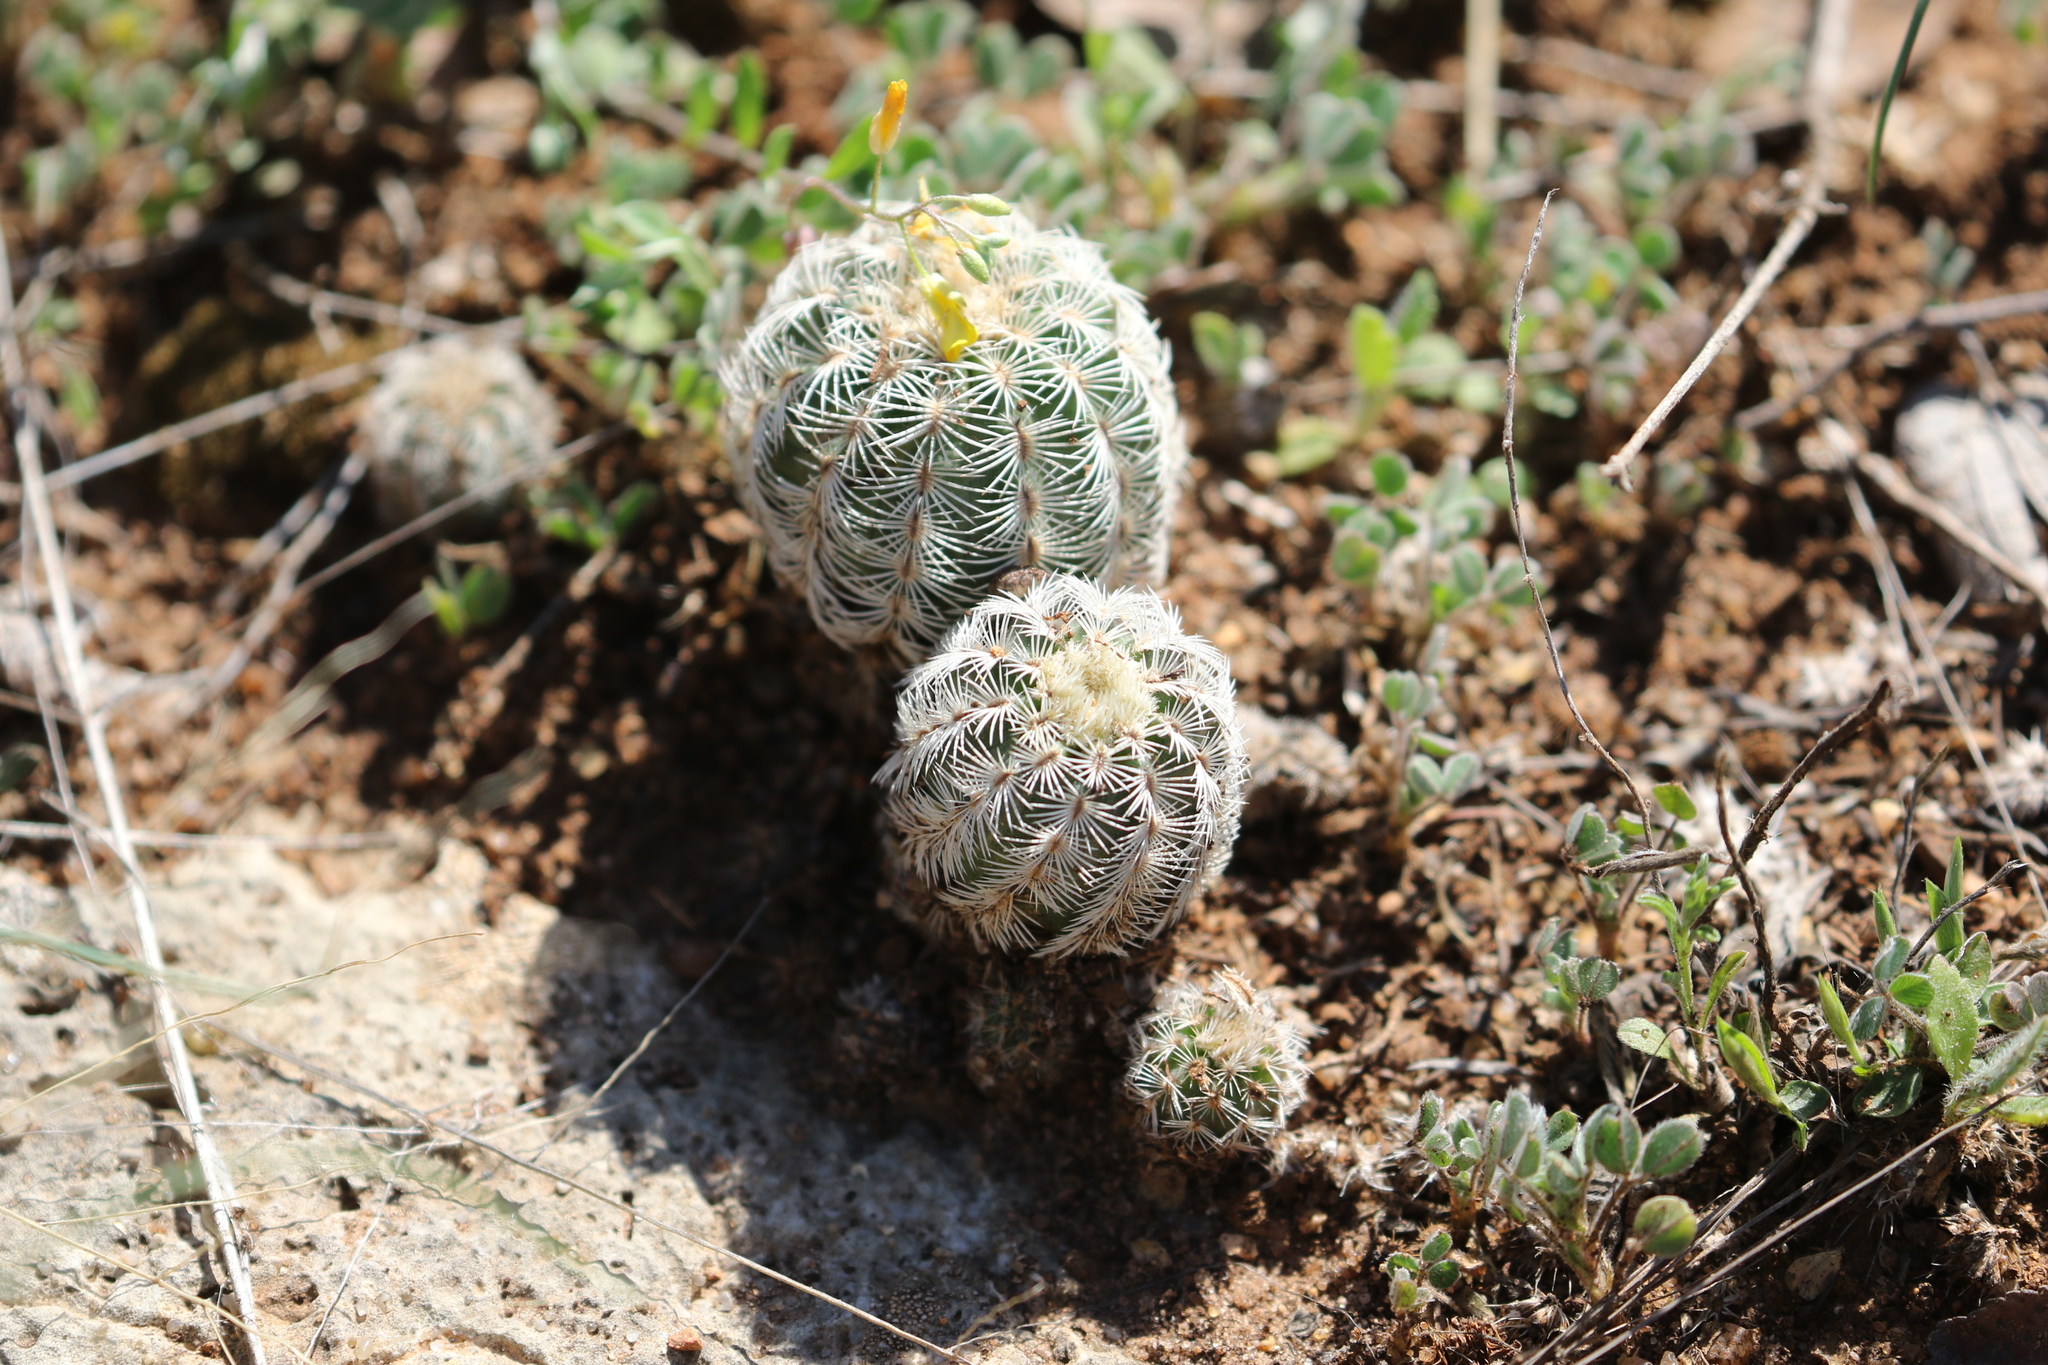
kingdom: Plantae
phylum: Tracheophyta
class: Magnoliopsida
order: Caryophyllales
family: Cactaceae
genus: Echinocereus
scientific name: Echinocereus reichenbachii
